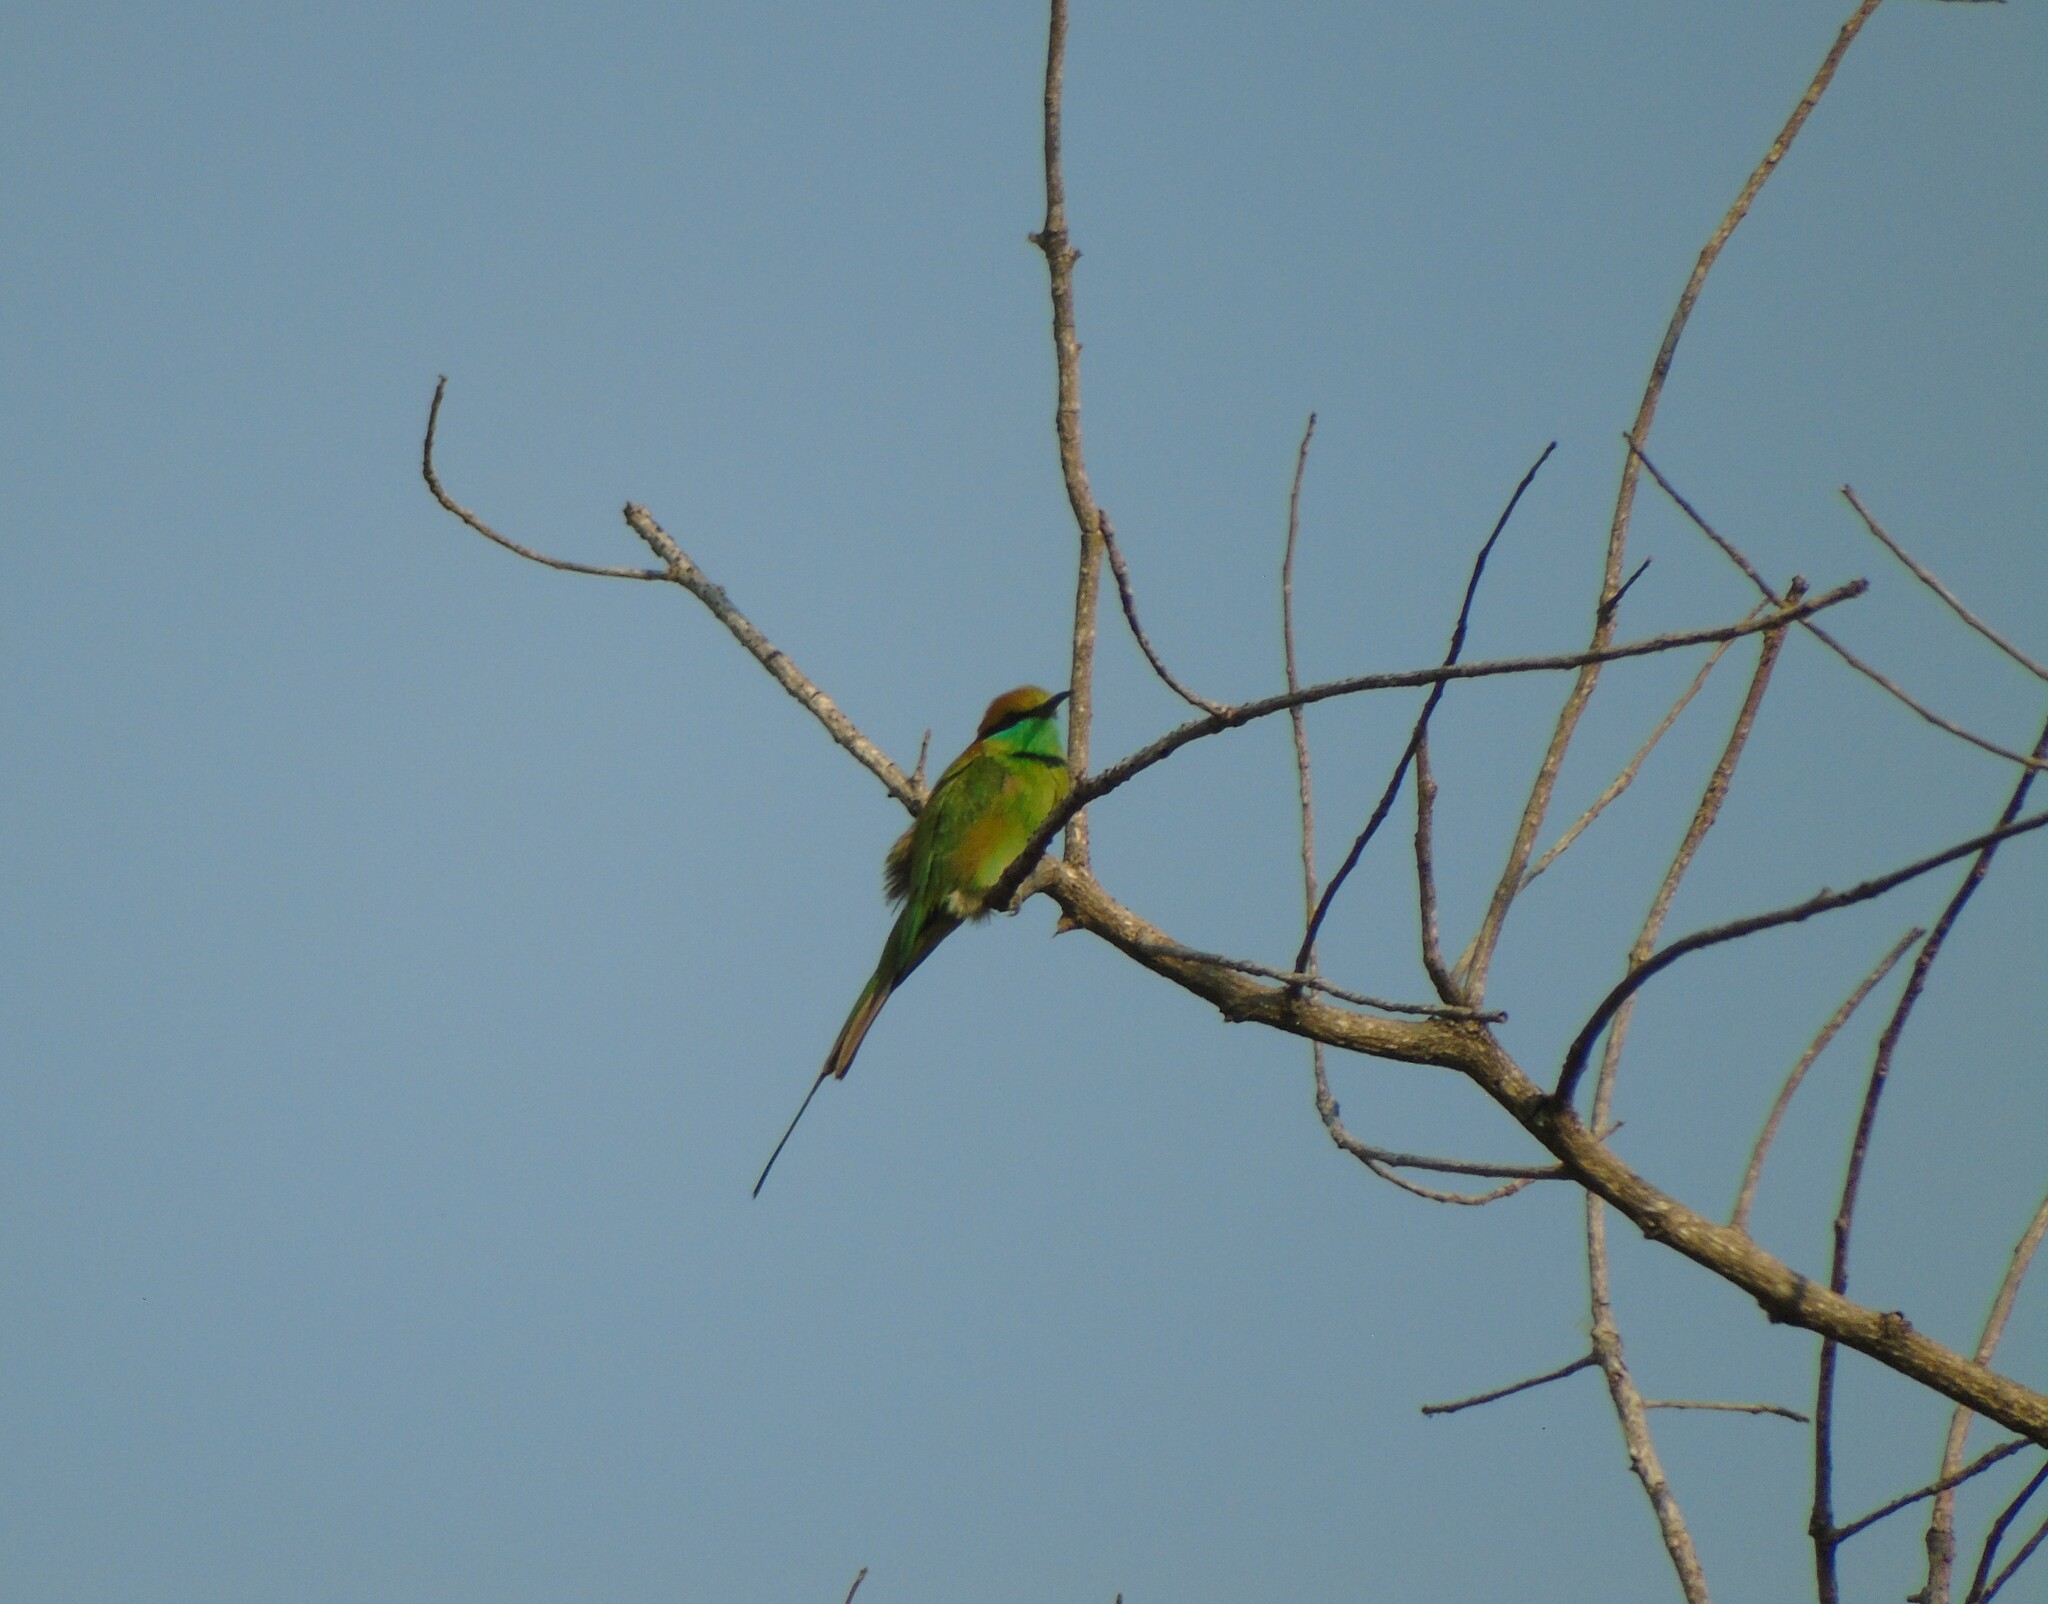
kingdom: Animalia
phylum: Chordata
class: Aves
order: Coraciiformes
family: Meropidae
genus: Merops
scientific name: Merops orientalis
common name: Green bee-eater
